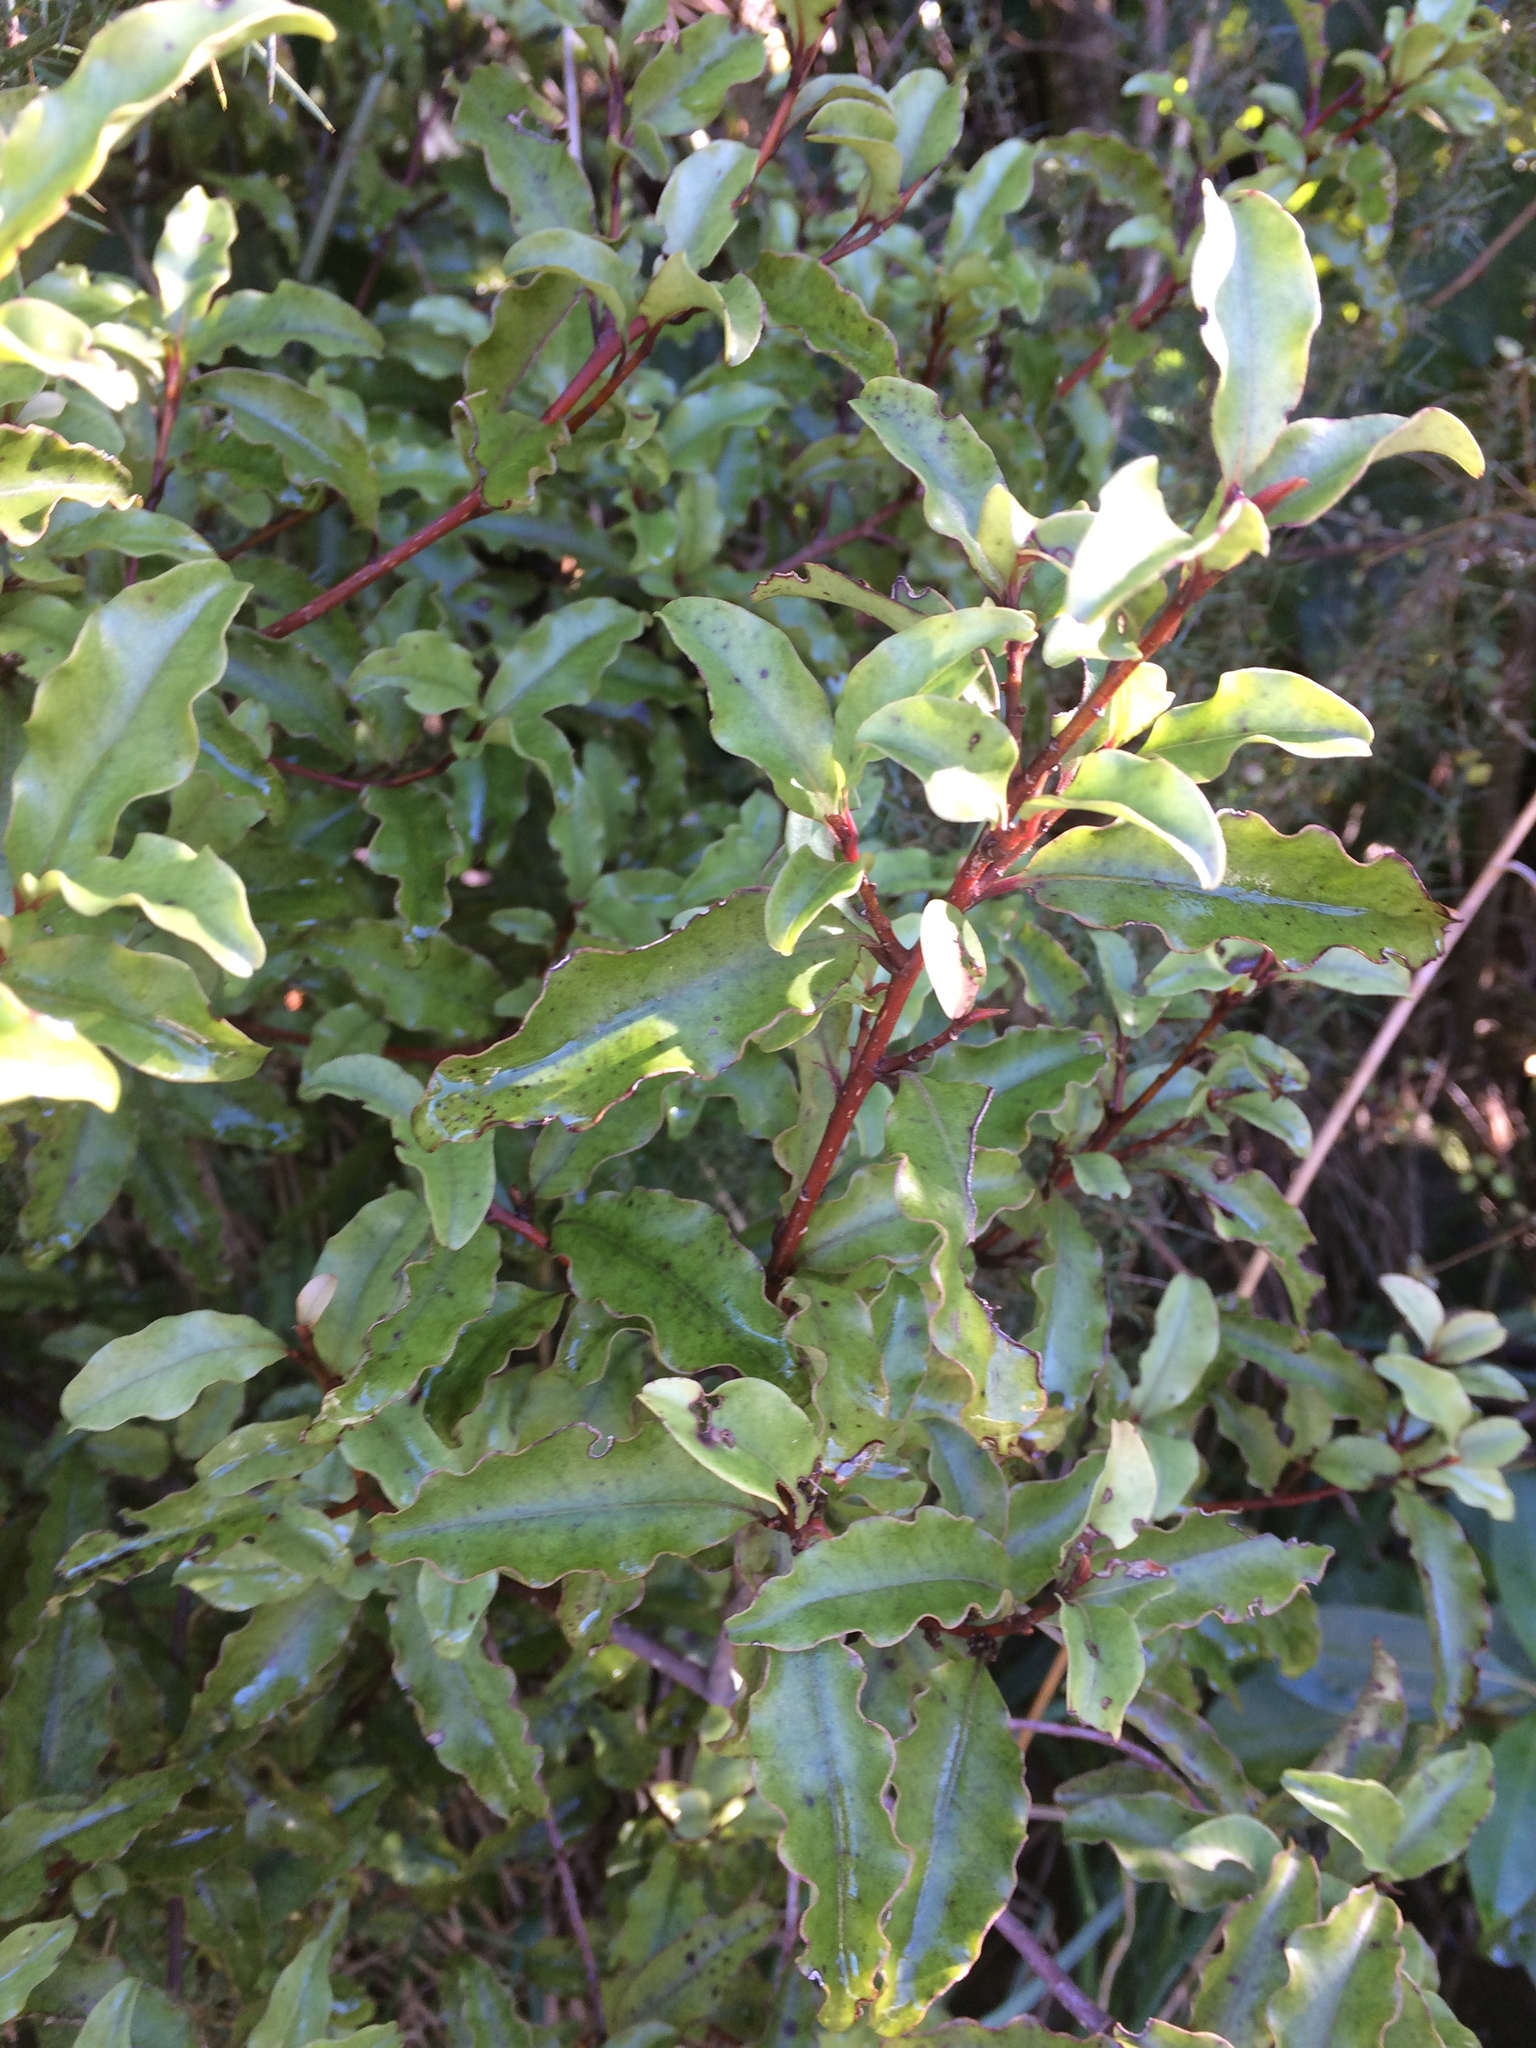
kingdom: Plantae
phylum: Tracheophyta
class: Magnoliopsida
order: Ericales
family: Primulaceae
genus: Myrsine
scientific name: Myrsine australis
